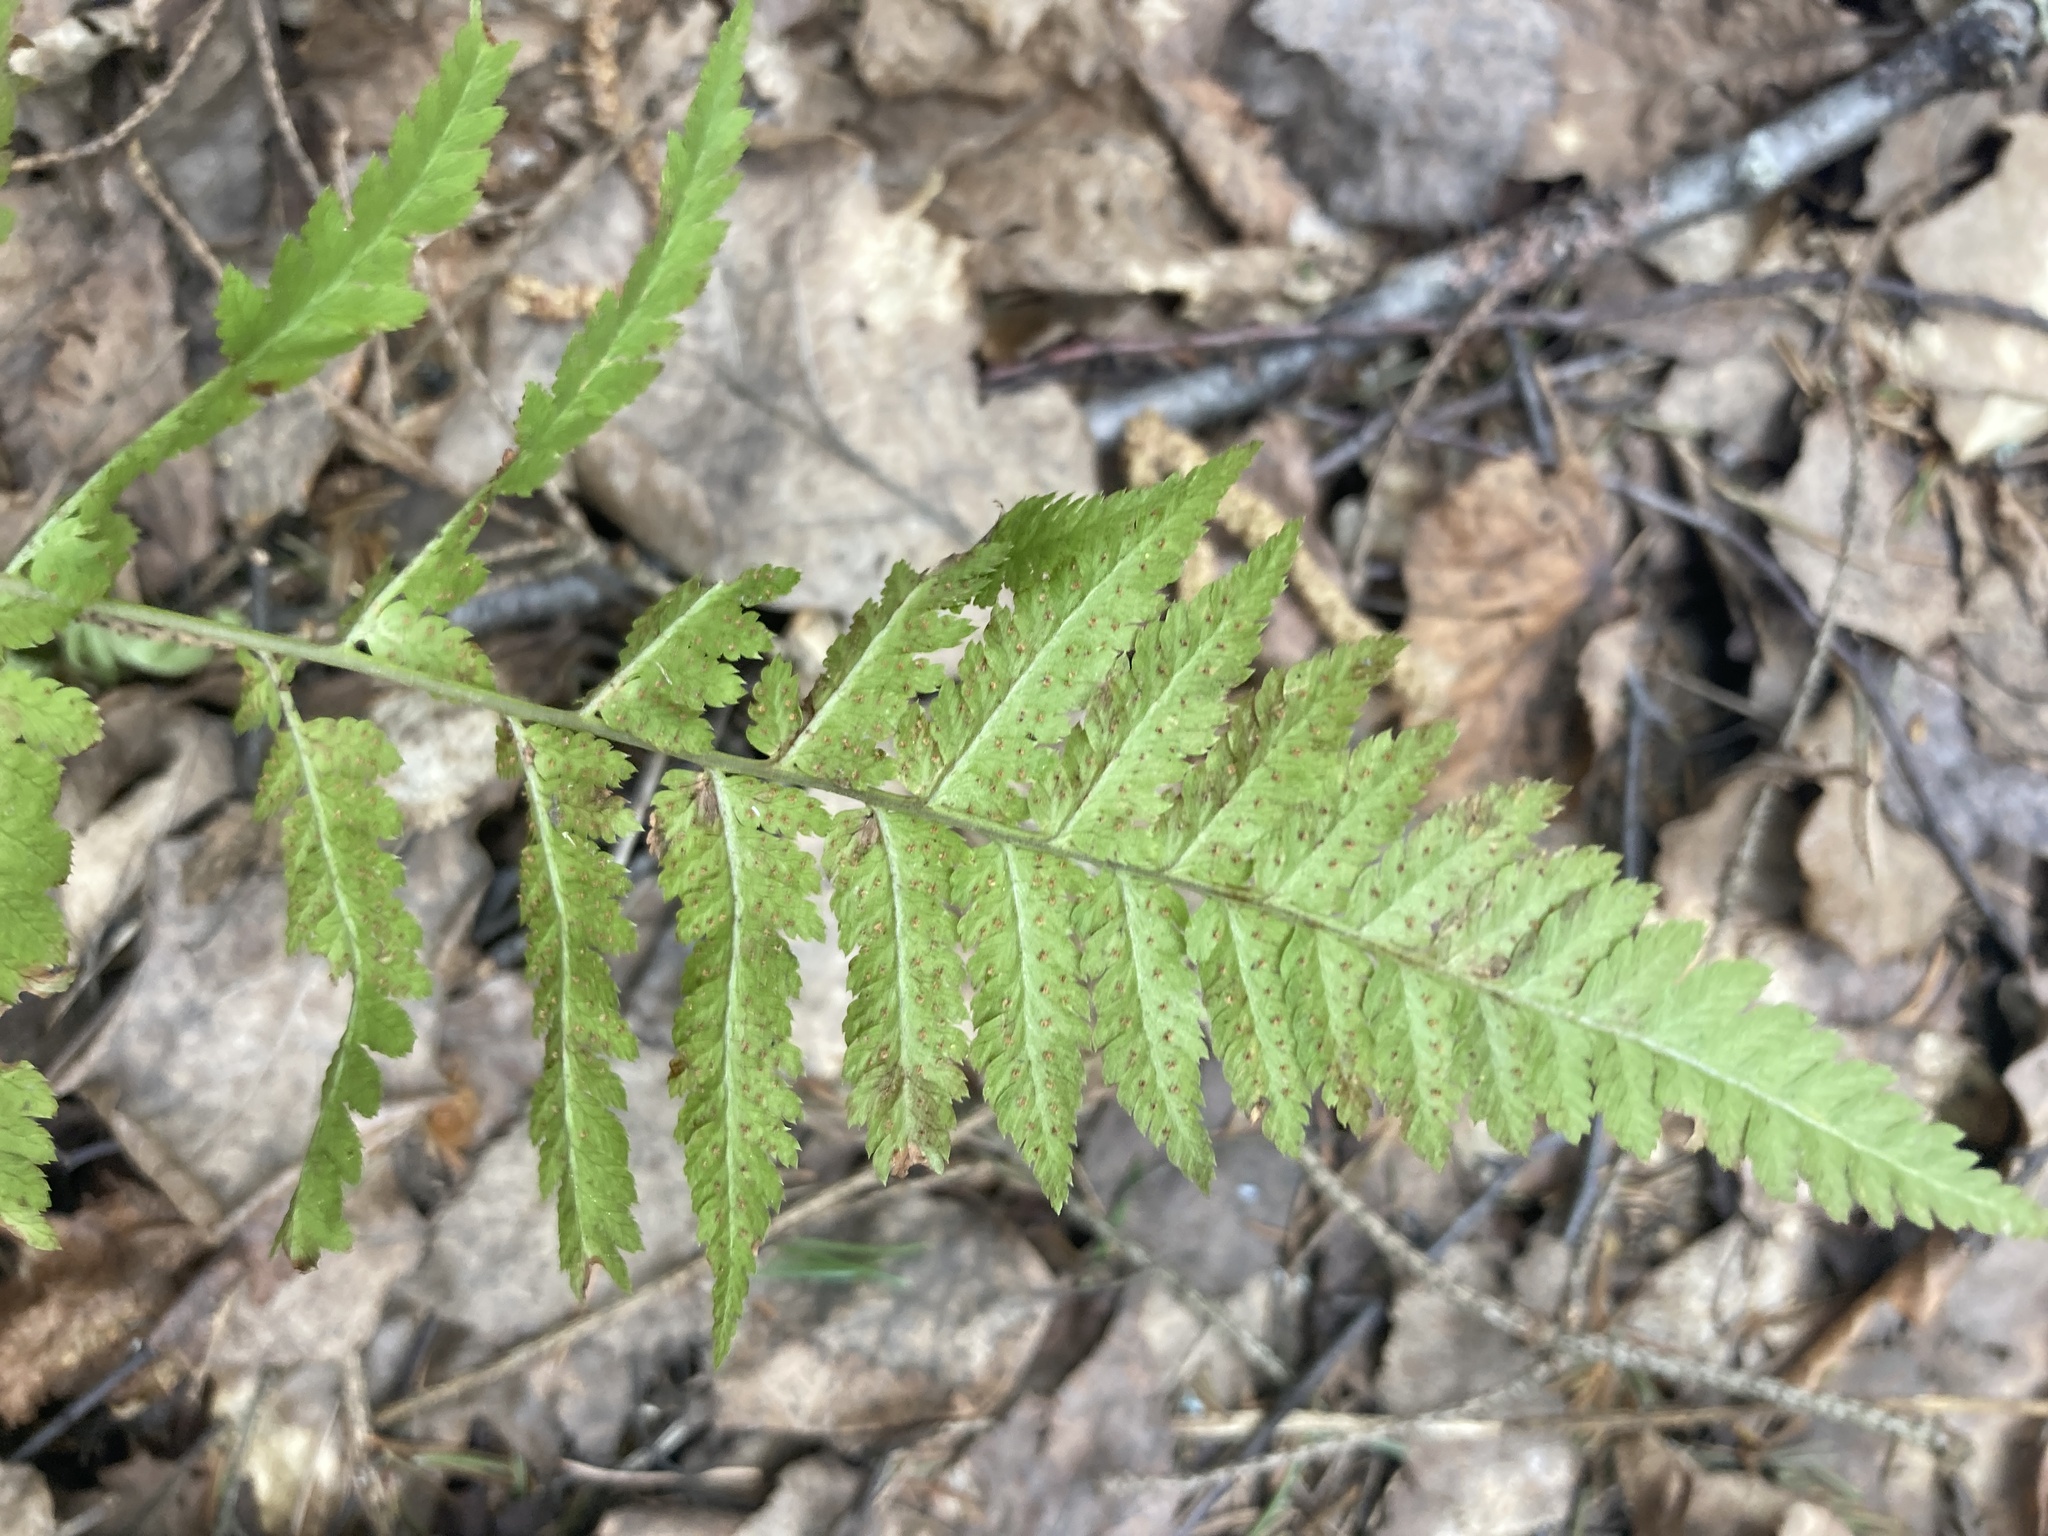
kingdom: Plantae
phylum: Tracheophyta
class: Polypodiopsida
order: Polypodiales
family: Dryopteridaceae
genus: Dryopteris
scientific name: Dryopteris carthusiana
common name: Narrow buckler-fern
